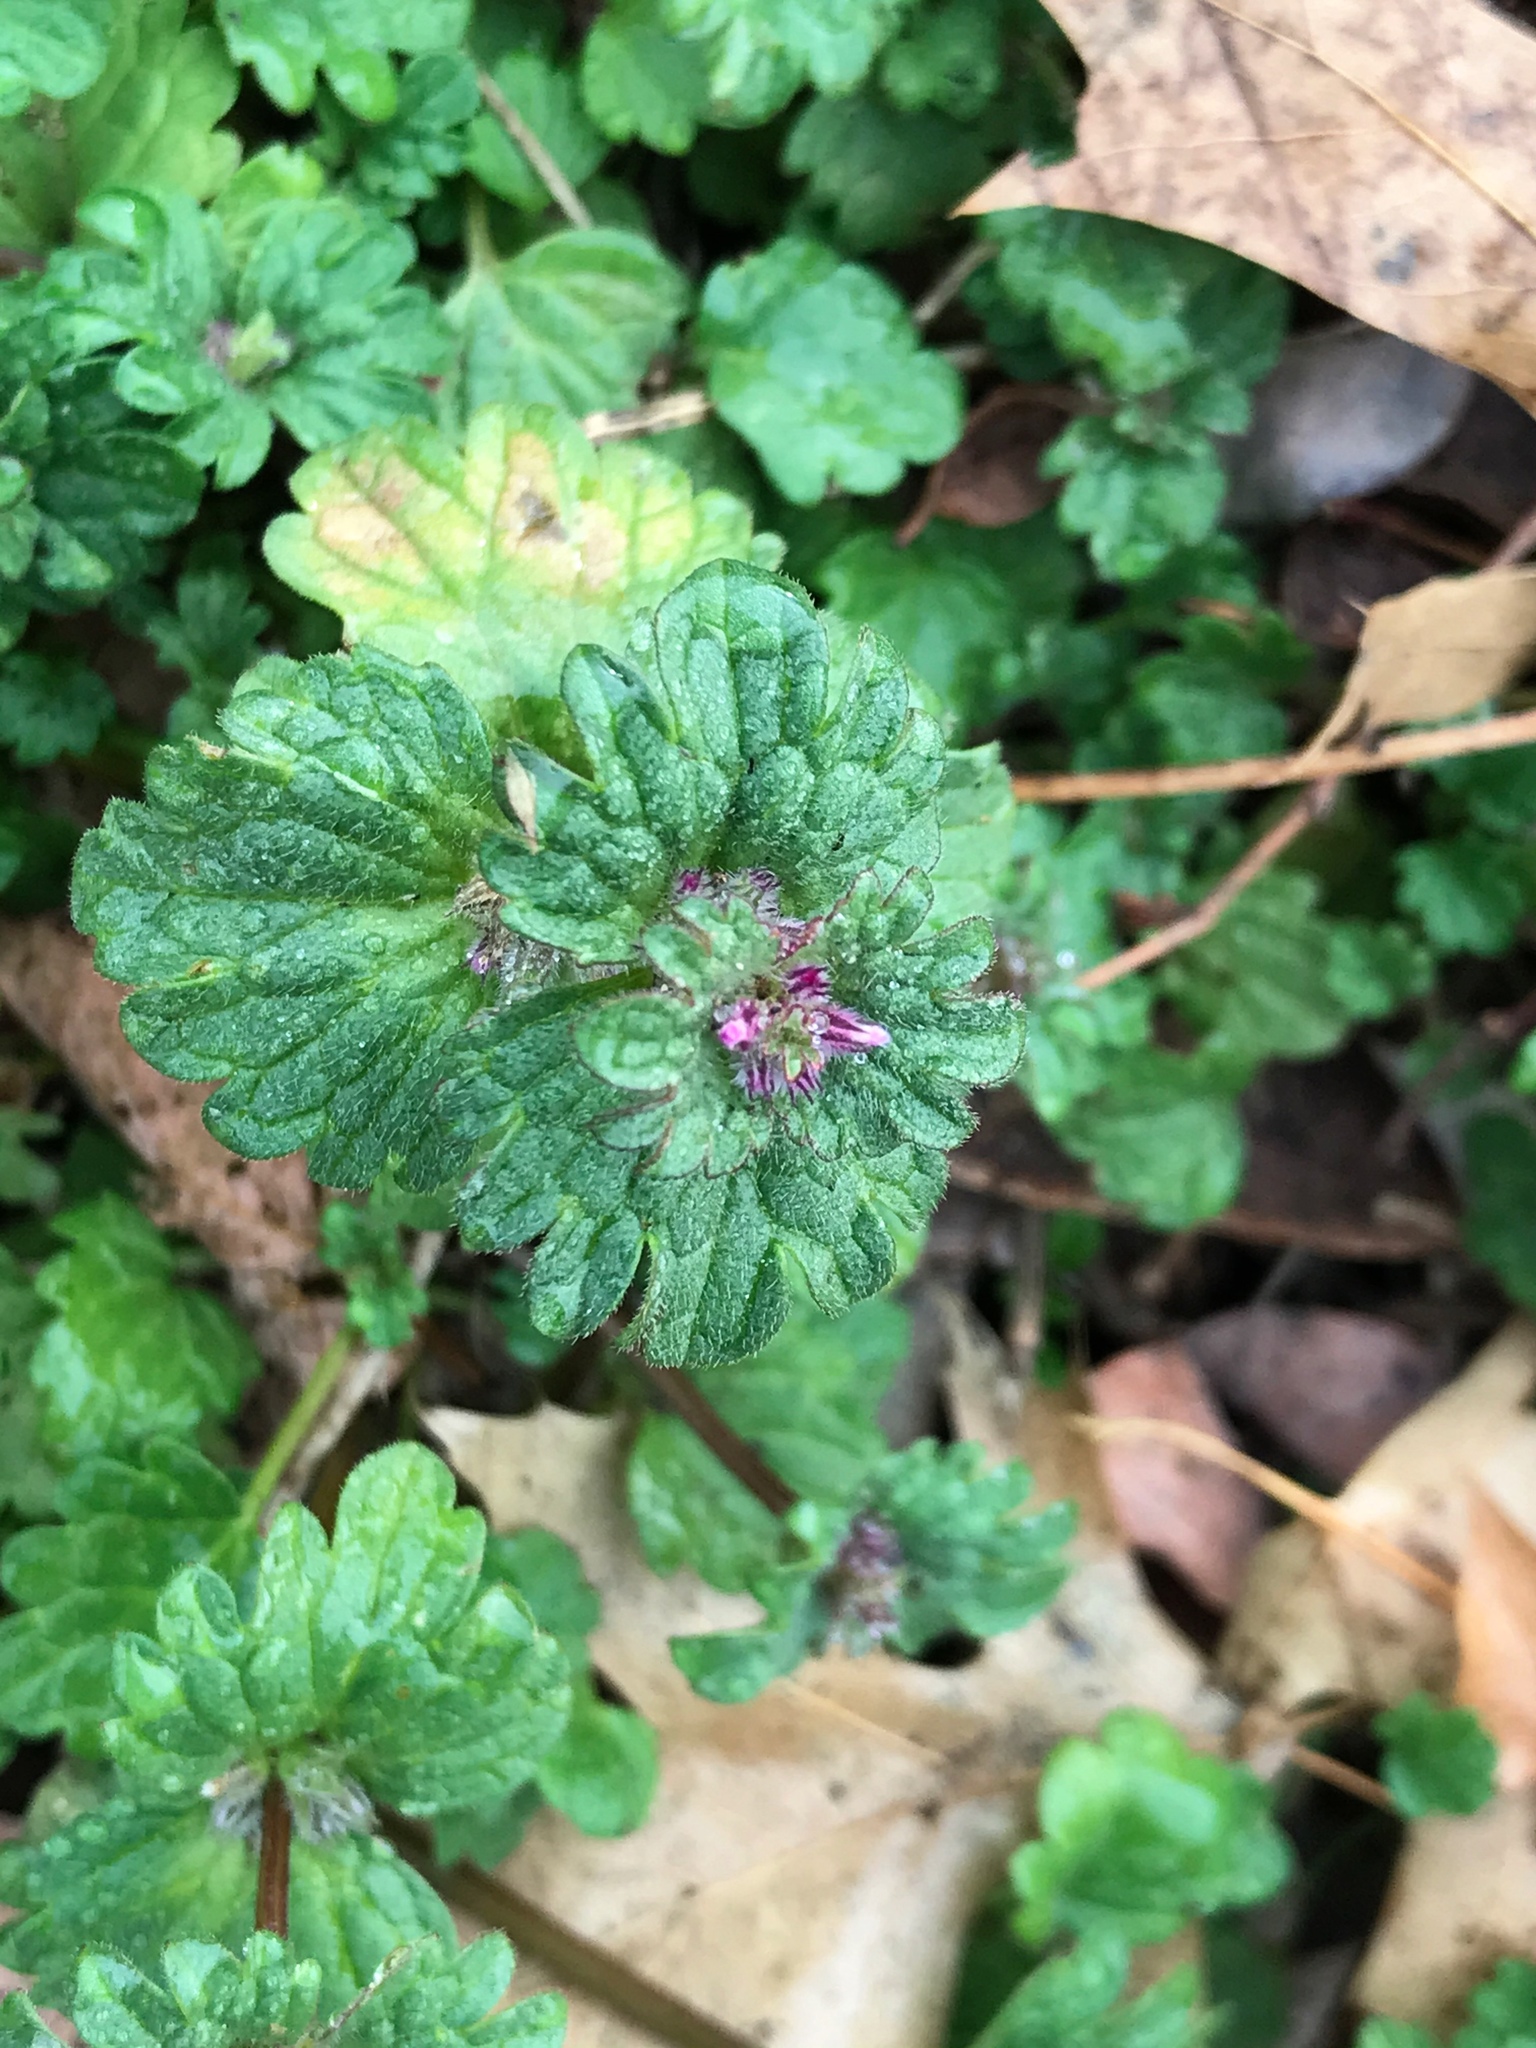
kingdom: Plantae
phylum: Tracheophyta
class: Magnoliopsida
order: Lamiales
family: Lamiaceae
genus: Lamium
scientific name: Lamium amplexicaule
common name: Henbit dead-nettle
